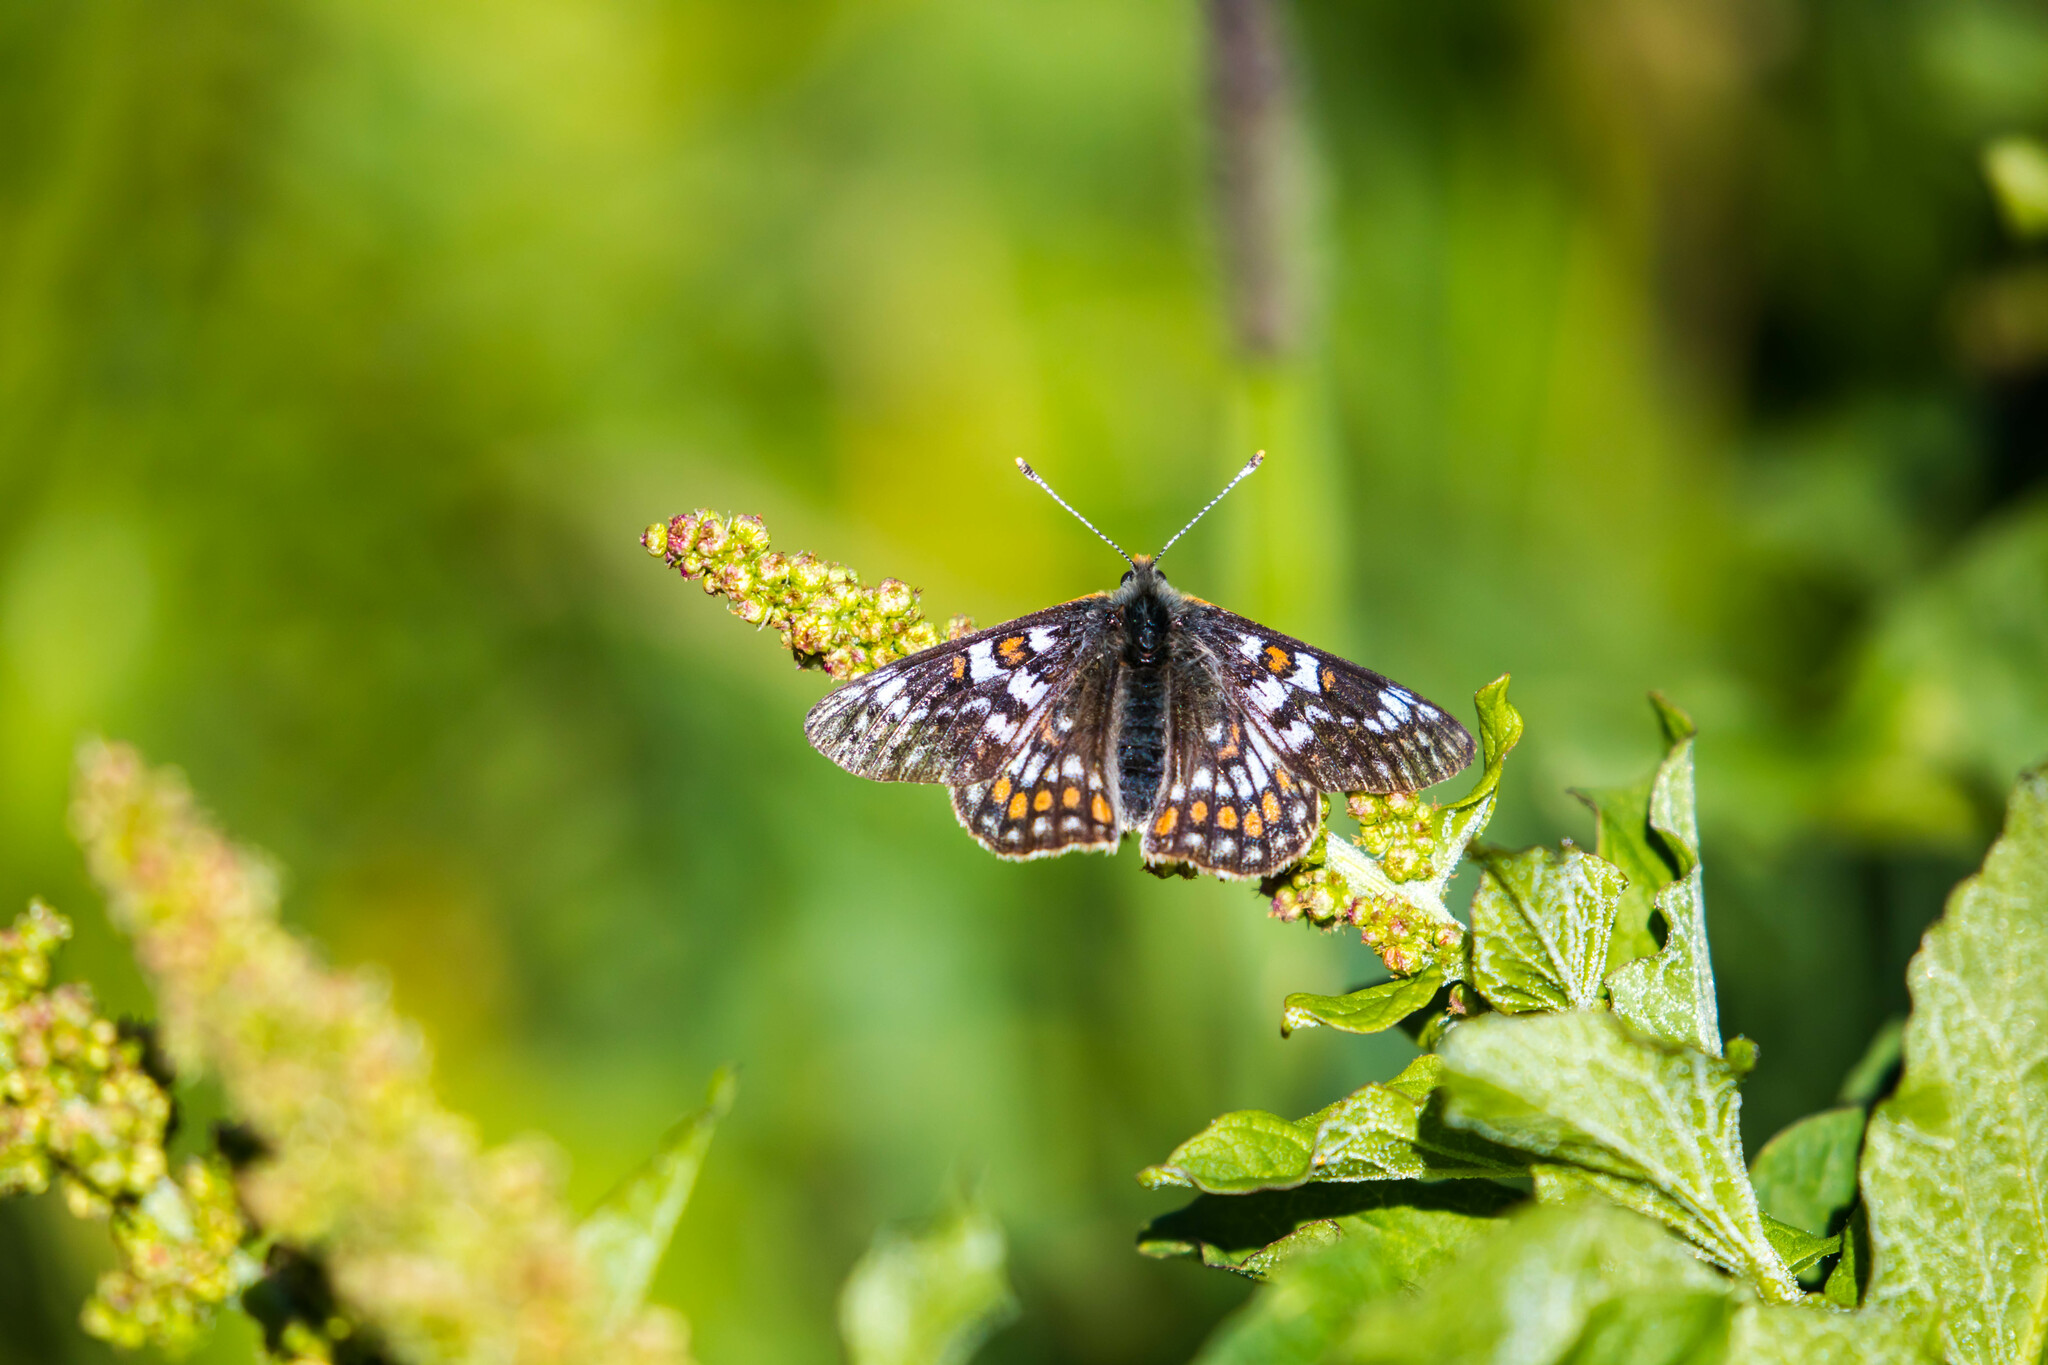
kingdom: Animalia
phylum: Arthropoda
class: Insecta
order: Lepidoptera
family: Nymphalidae
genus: Hypodryas
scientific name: Hypodryas cynthia
